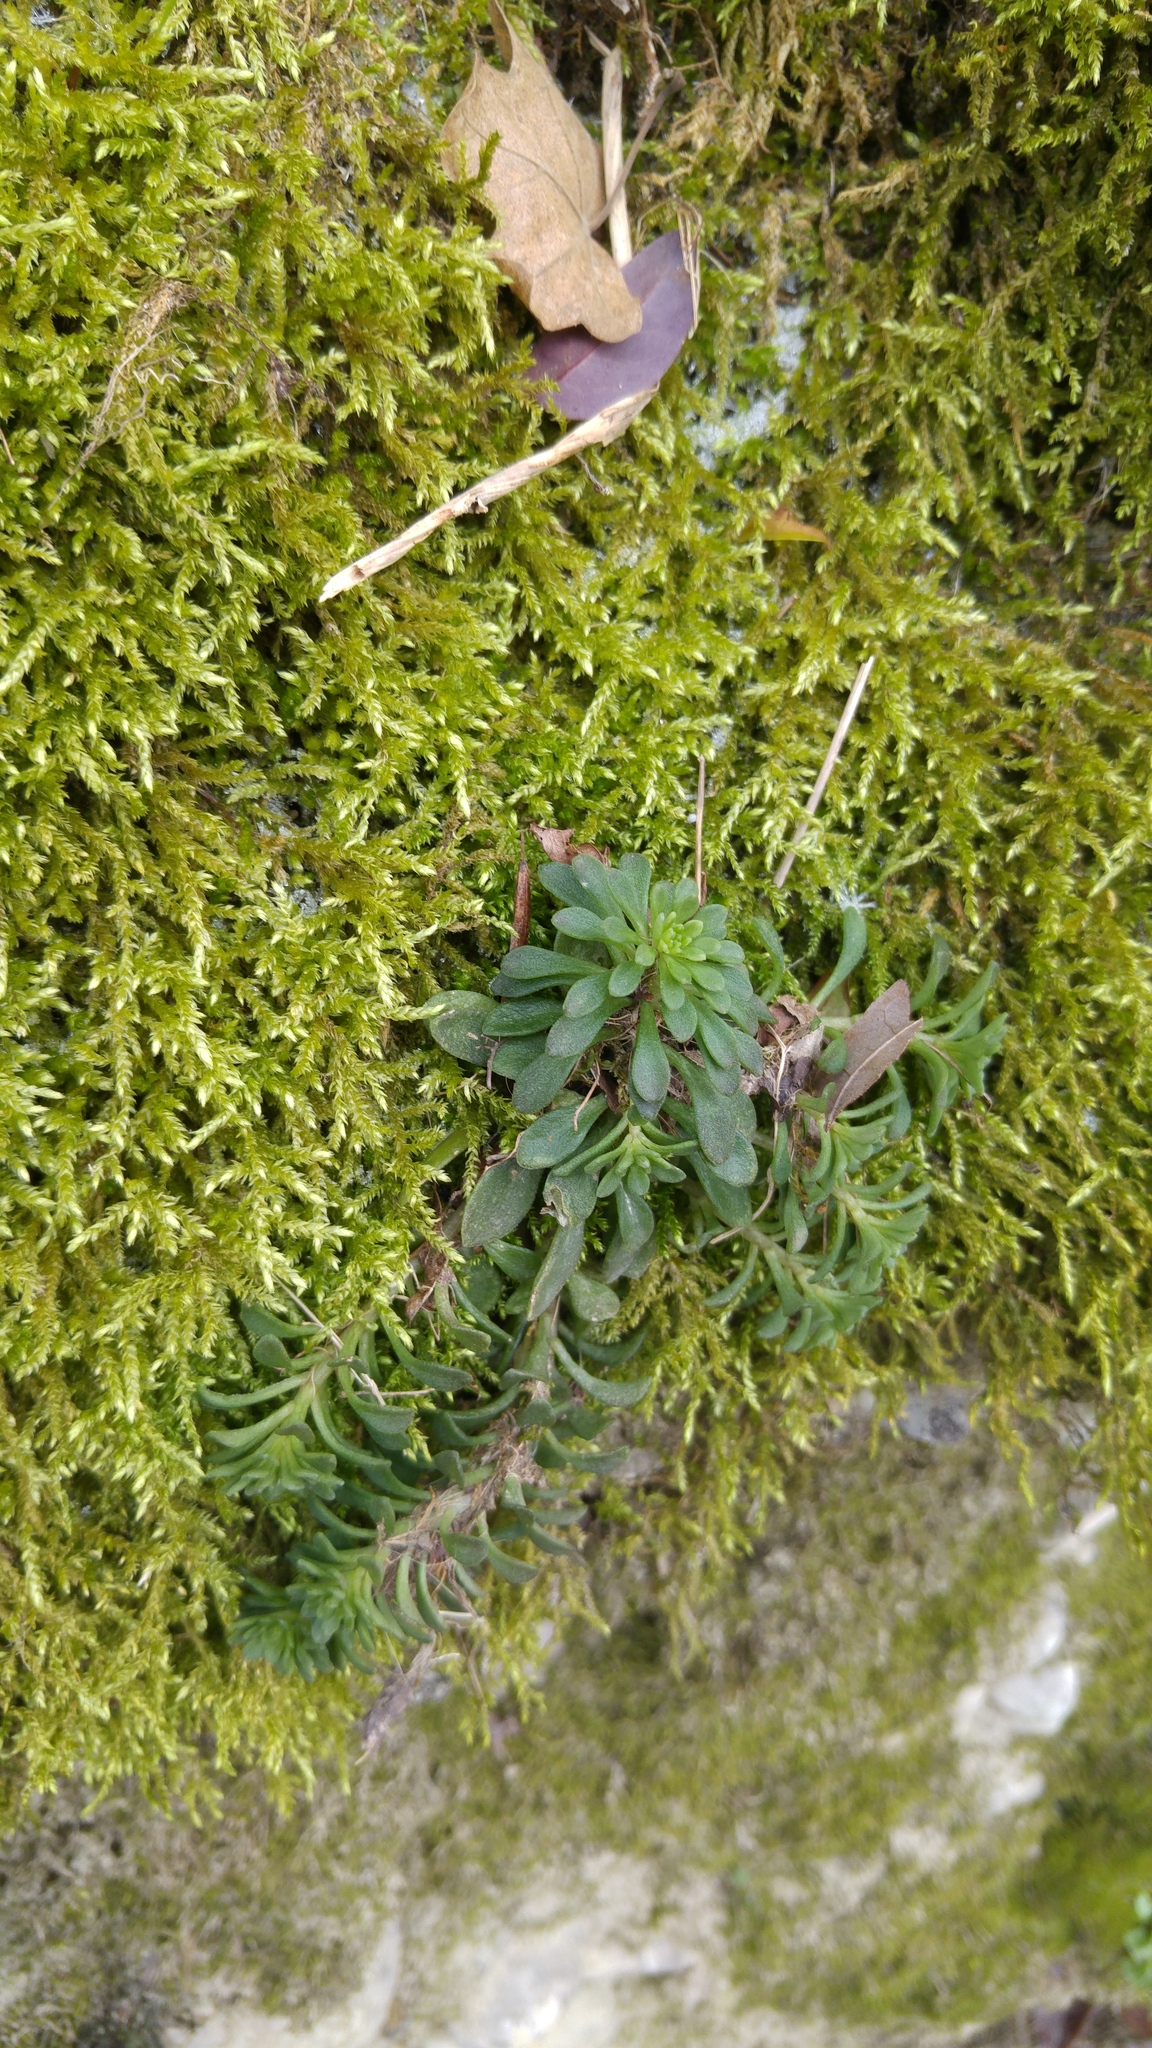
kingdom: Plantae
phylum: Tracheophyta
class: Magnoliopsida
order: Saxifragales
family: Crassulaceae
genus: Sedum
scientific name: Sedum cepaea
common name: Pink stonecrop
